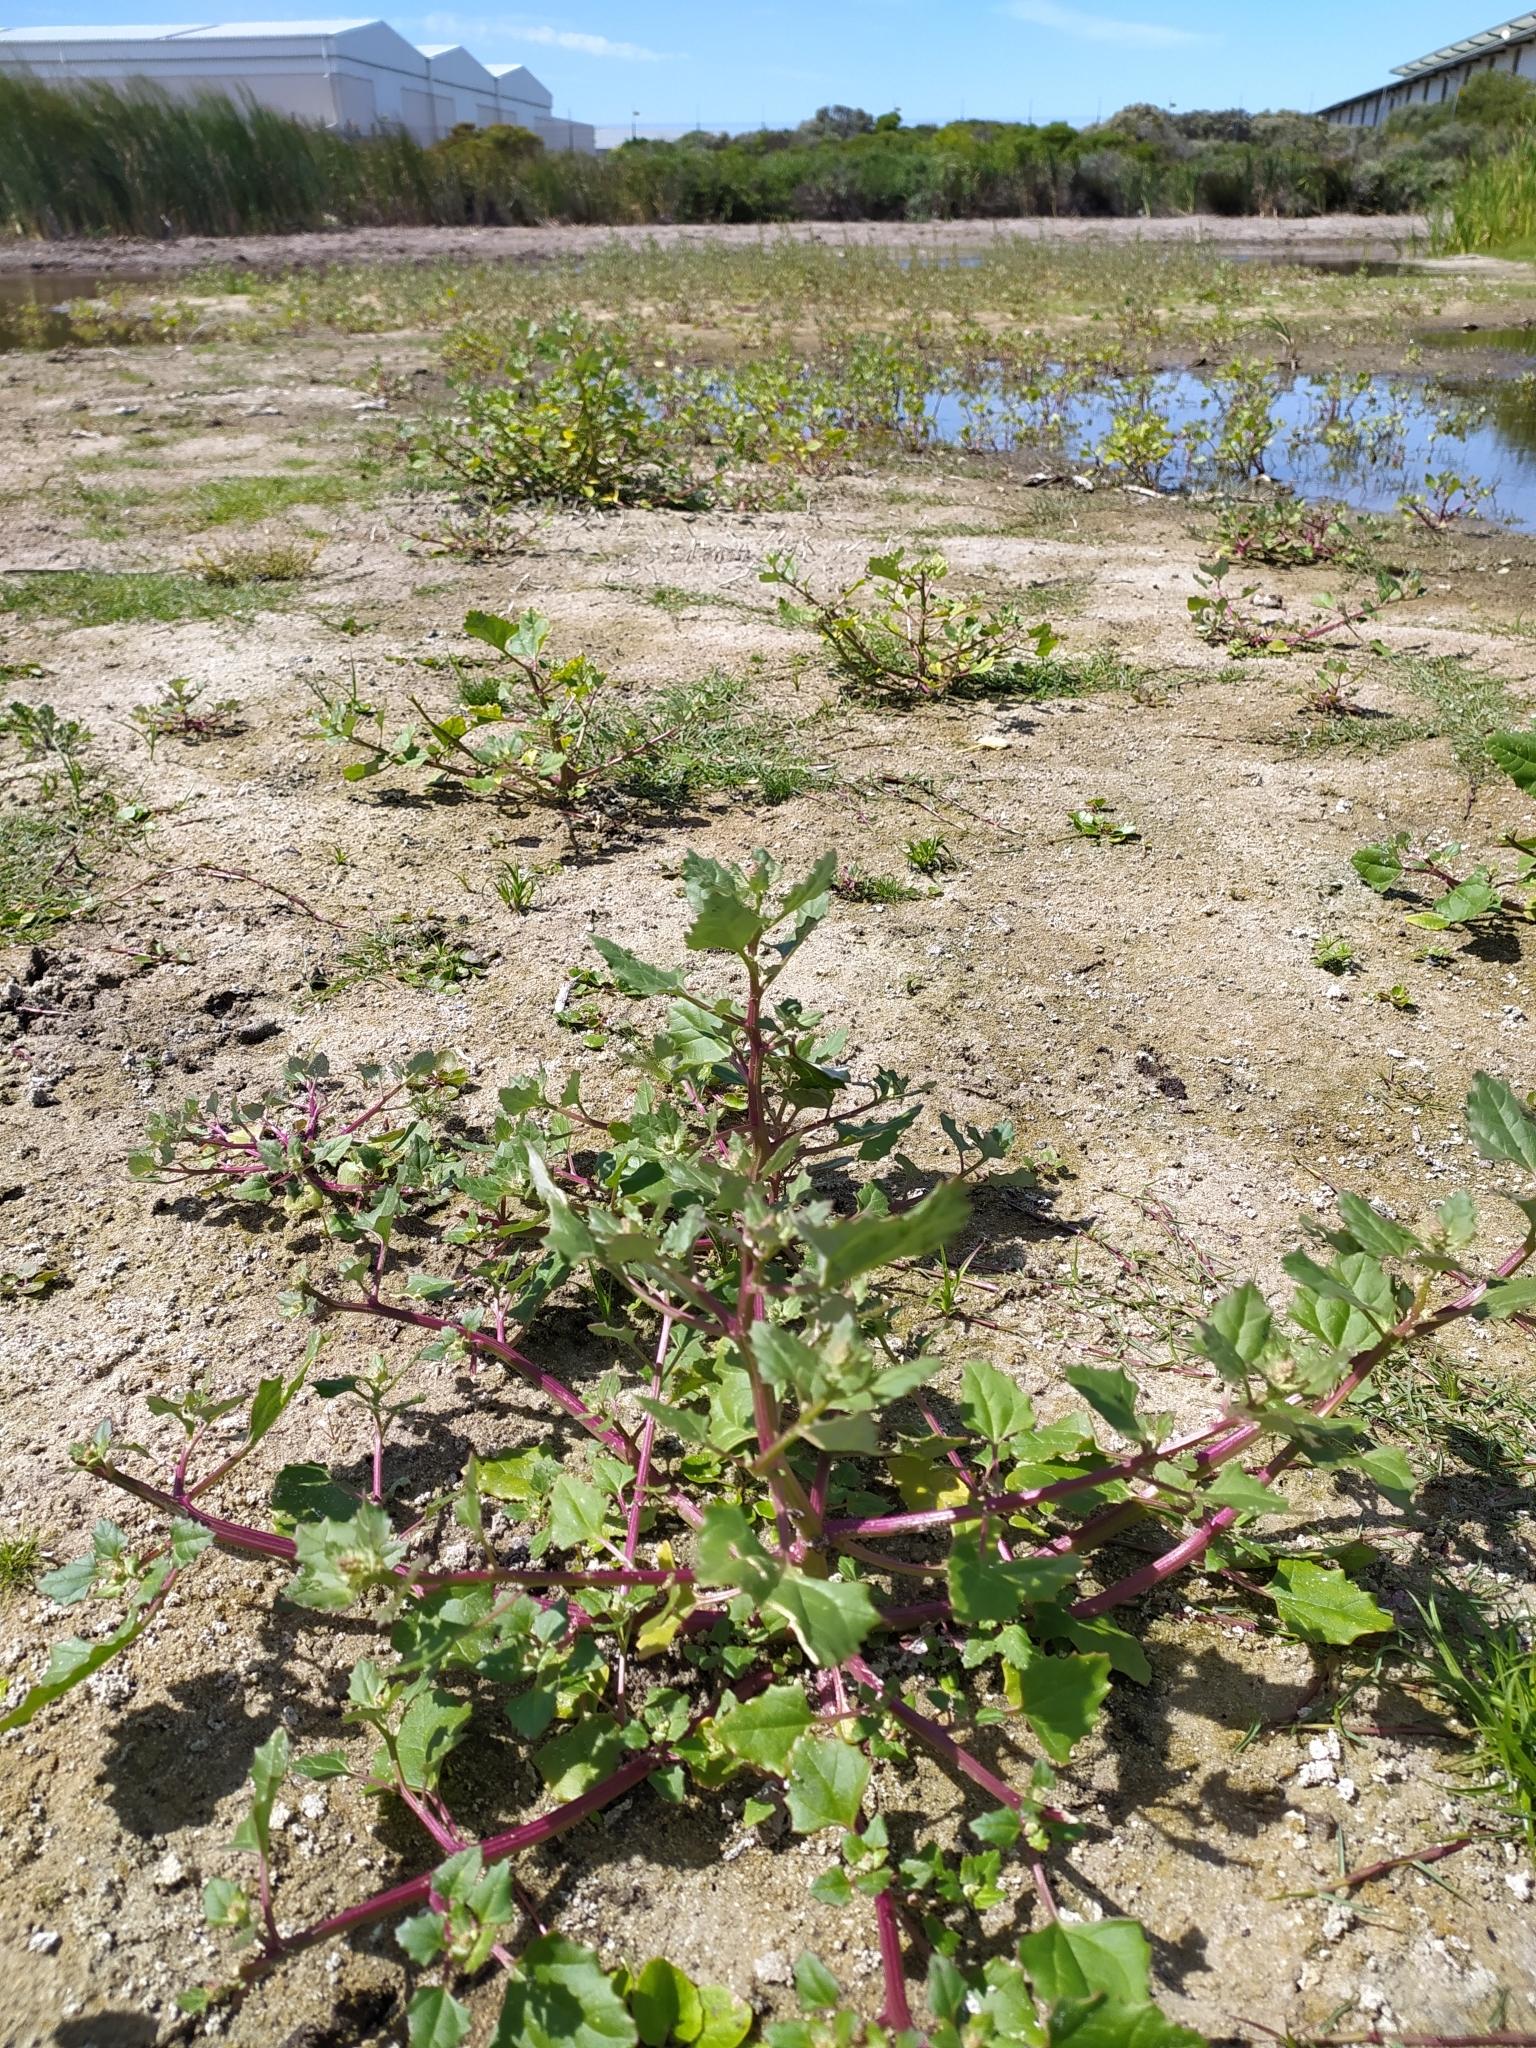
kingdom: Plantae
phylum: Tracheophyta
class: Magnoliopsida
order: Caryophyllales
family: Amaranthaceae
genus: Chenopodiastrum
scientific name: Chenopodiastrum murale
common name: Sowbane
